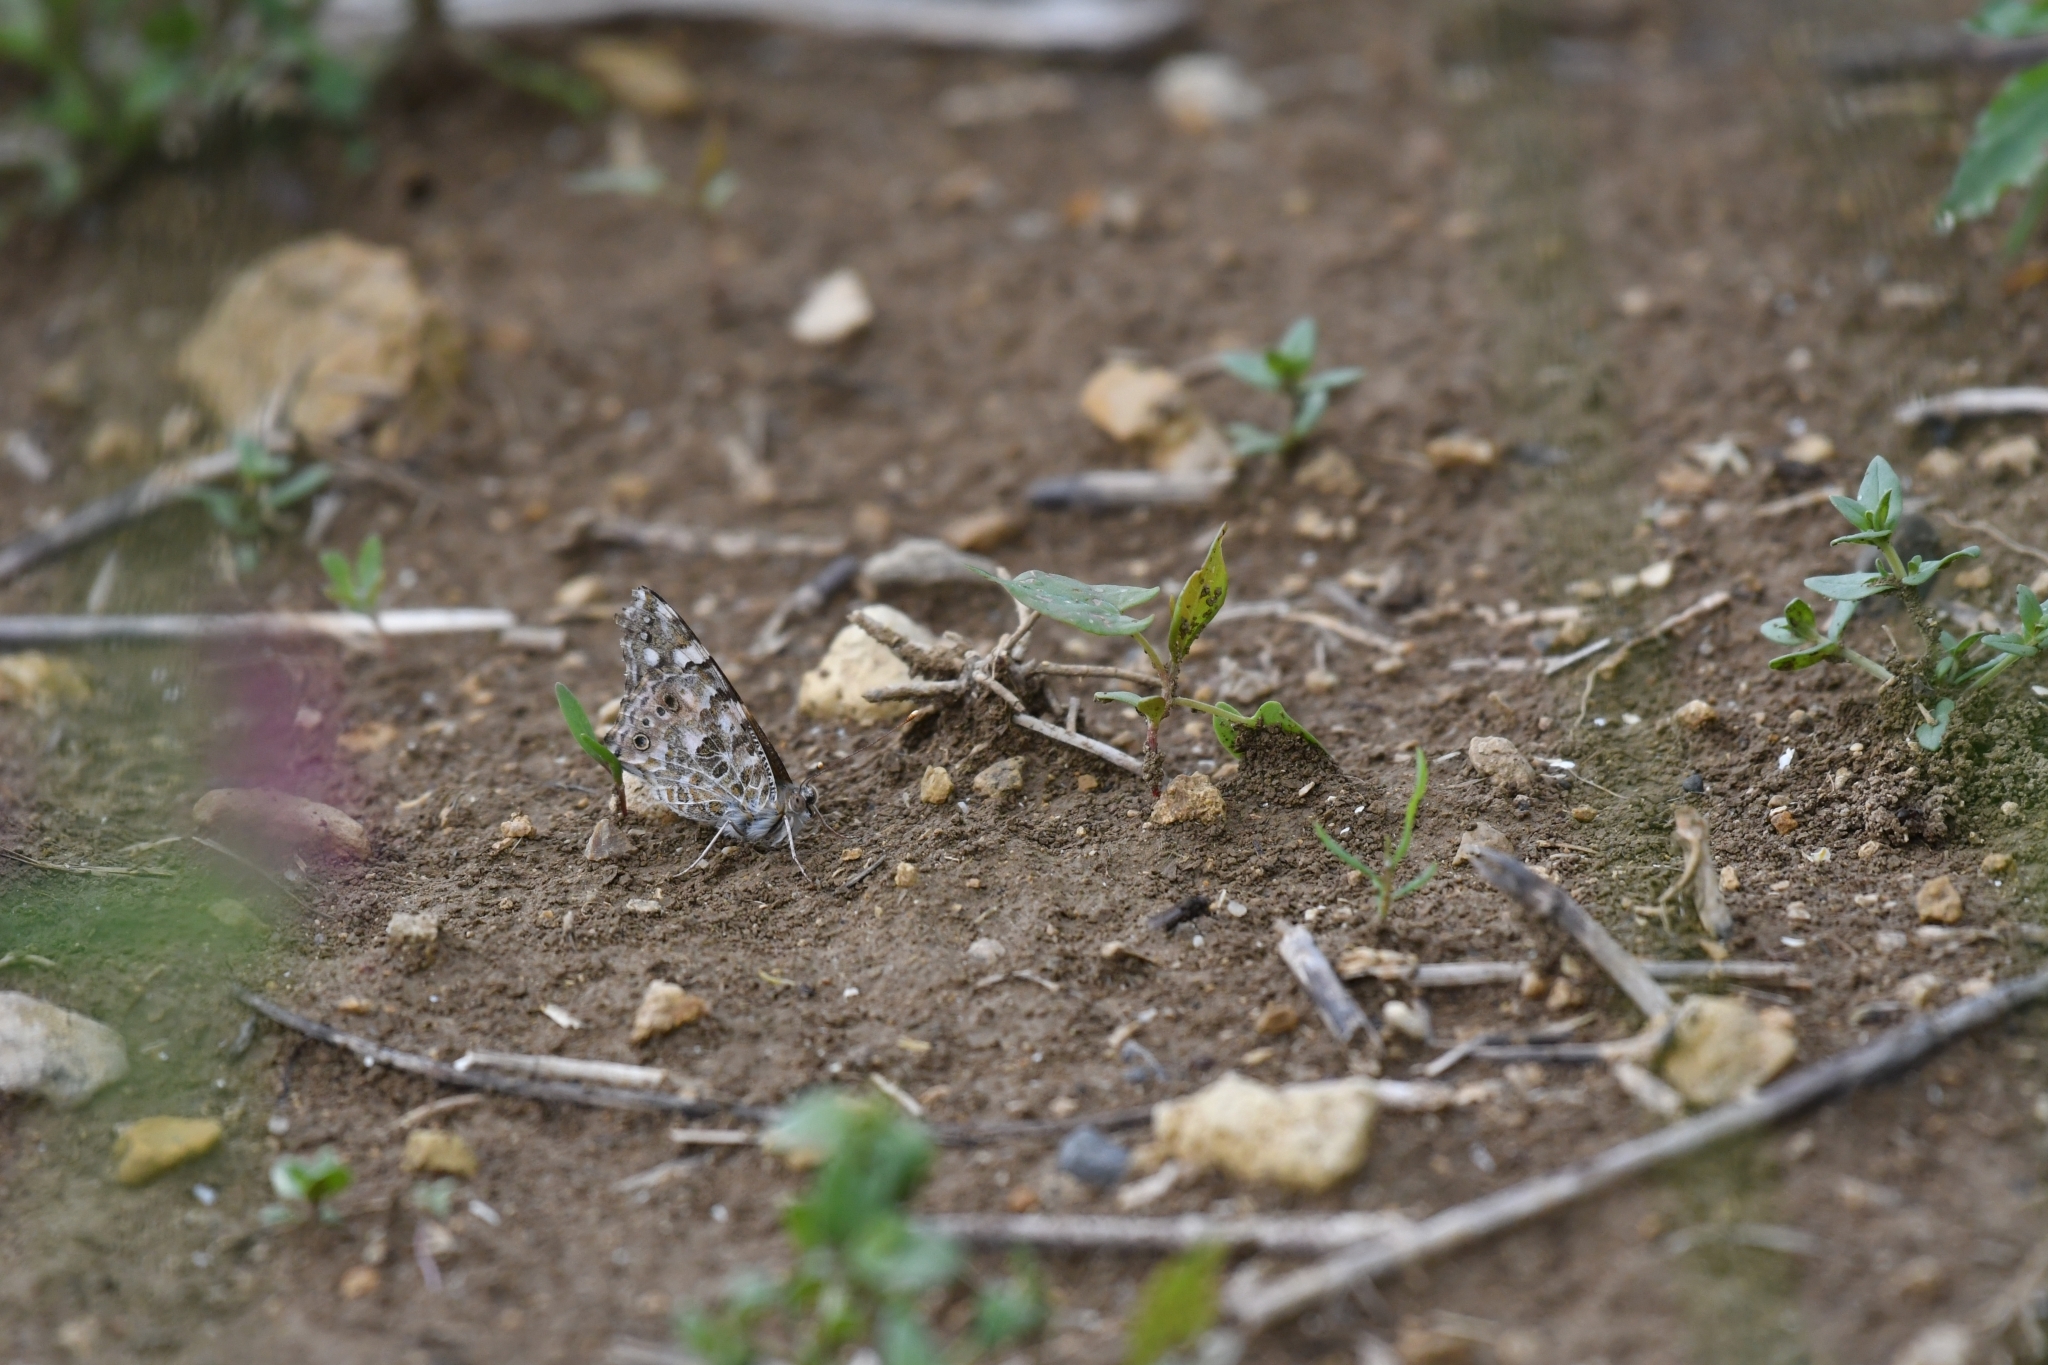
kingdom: Animalia
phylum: Arthropoda
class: Insecta
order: Lepidoptera
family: Nymphalidae
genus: Vanessa
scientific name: Vanessa cardui
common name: Painted lady
